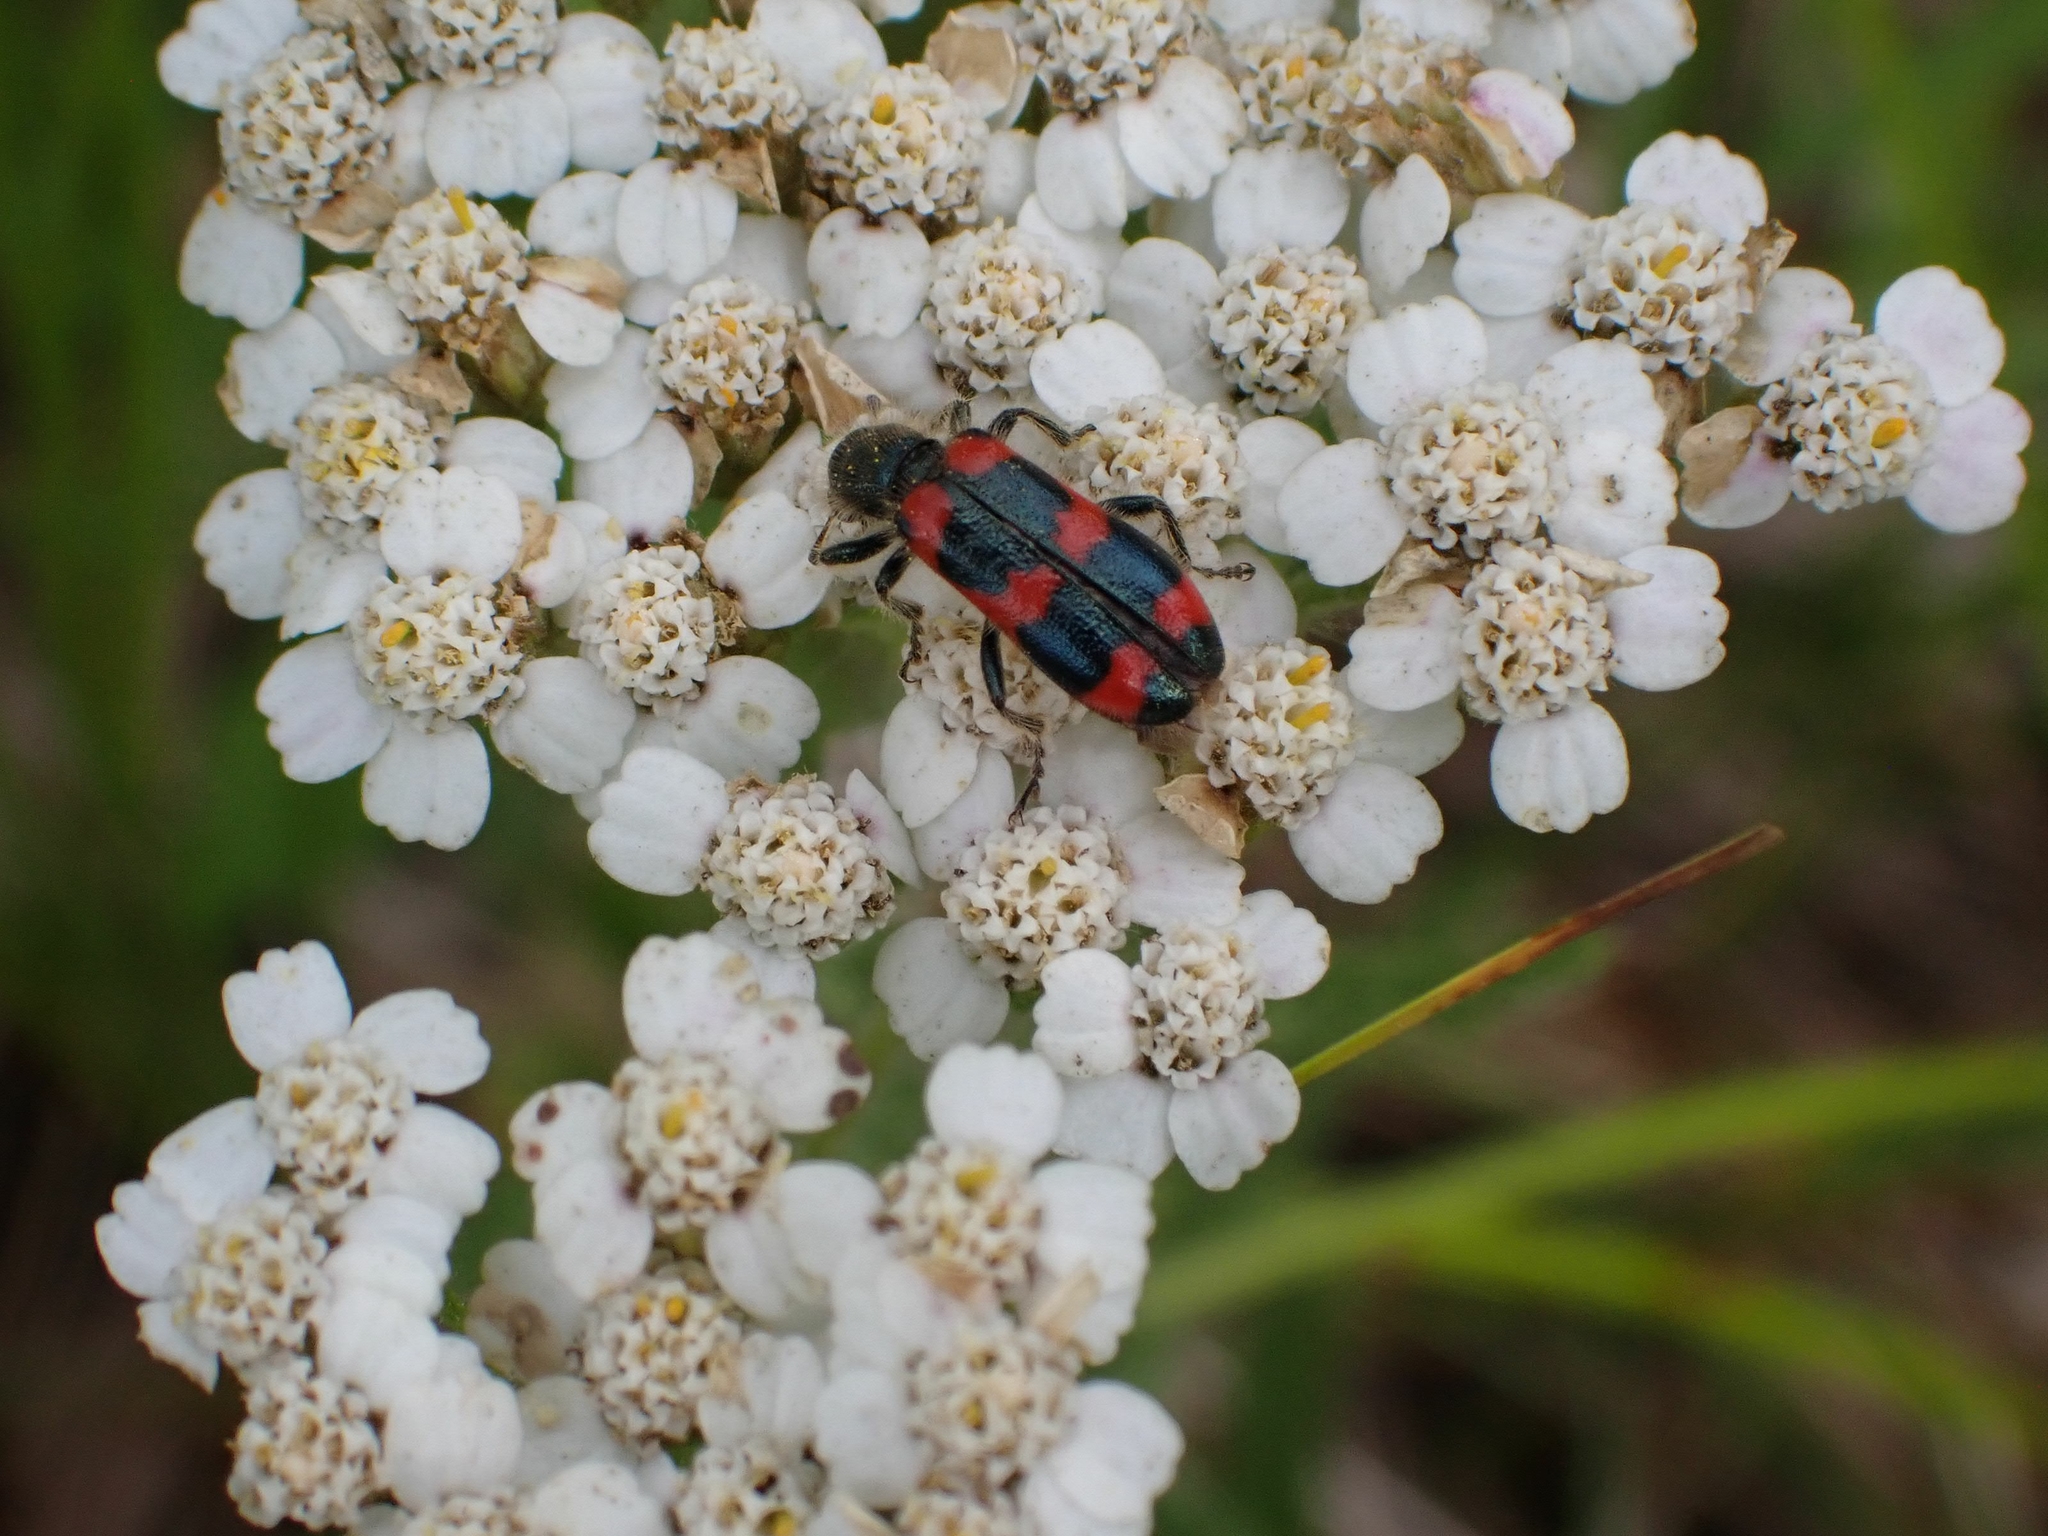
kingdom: Animalia
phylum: Arthropoda
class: Insecta
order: Coleoptera
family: Cleridae
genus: Trichodes
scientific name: Trichodes nutalli
